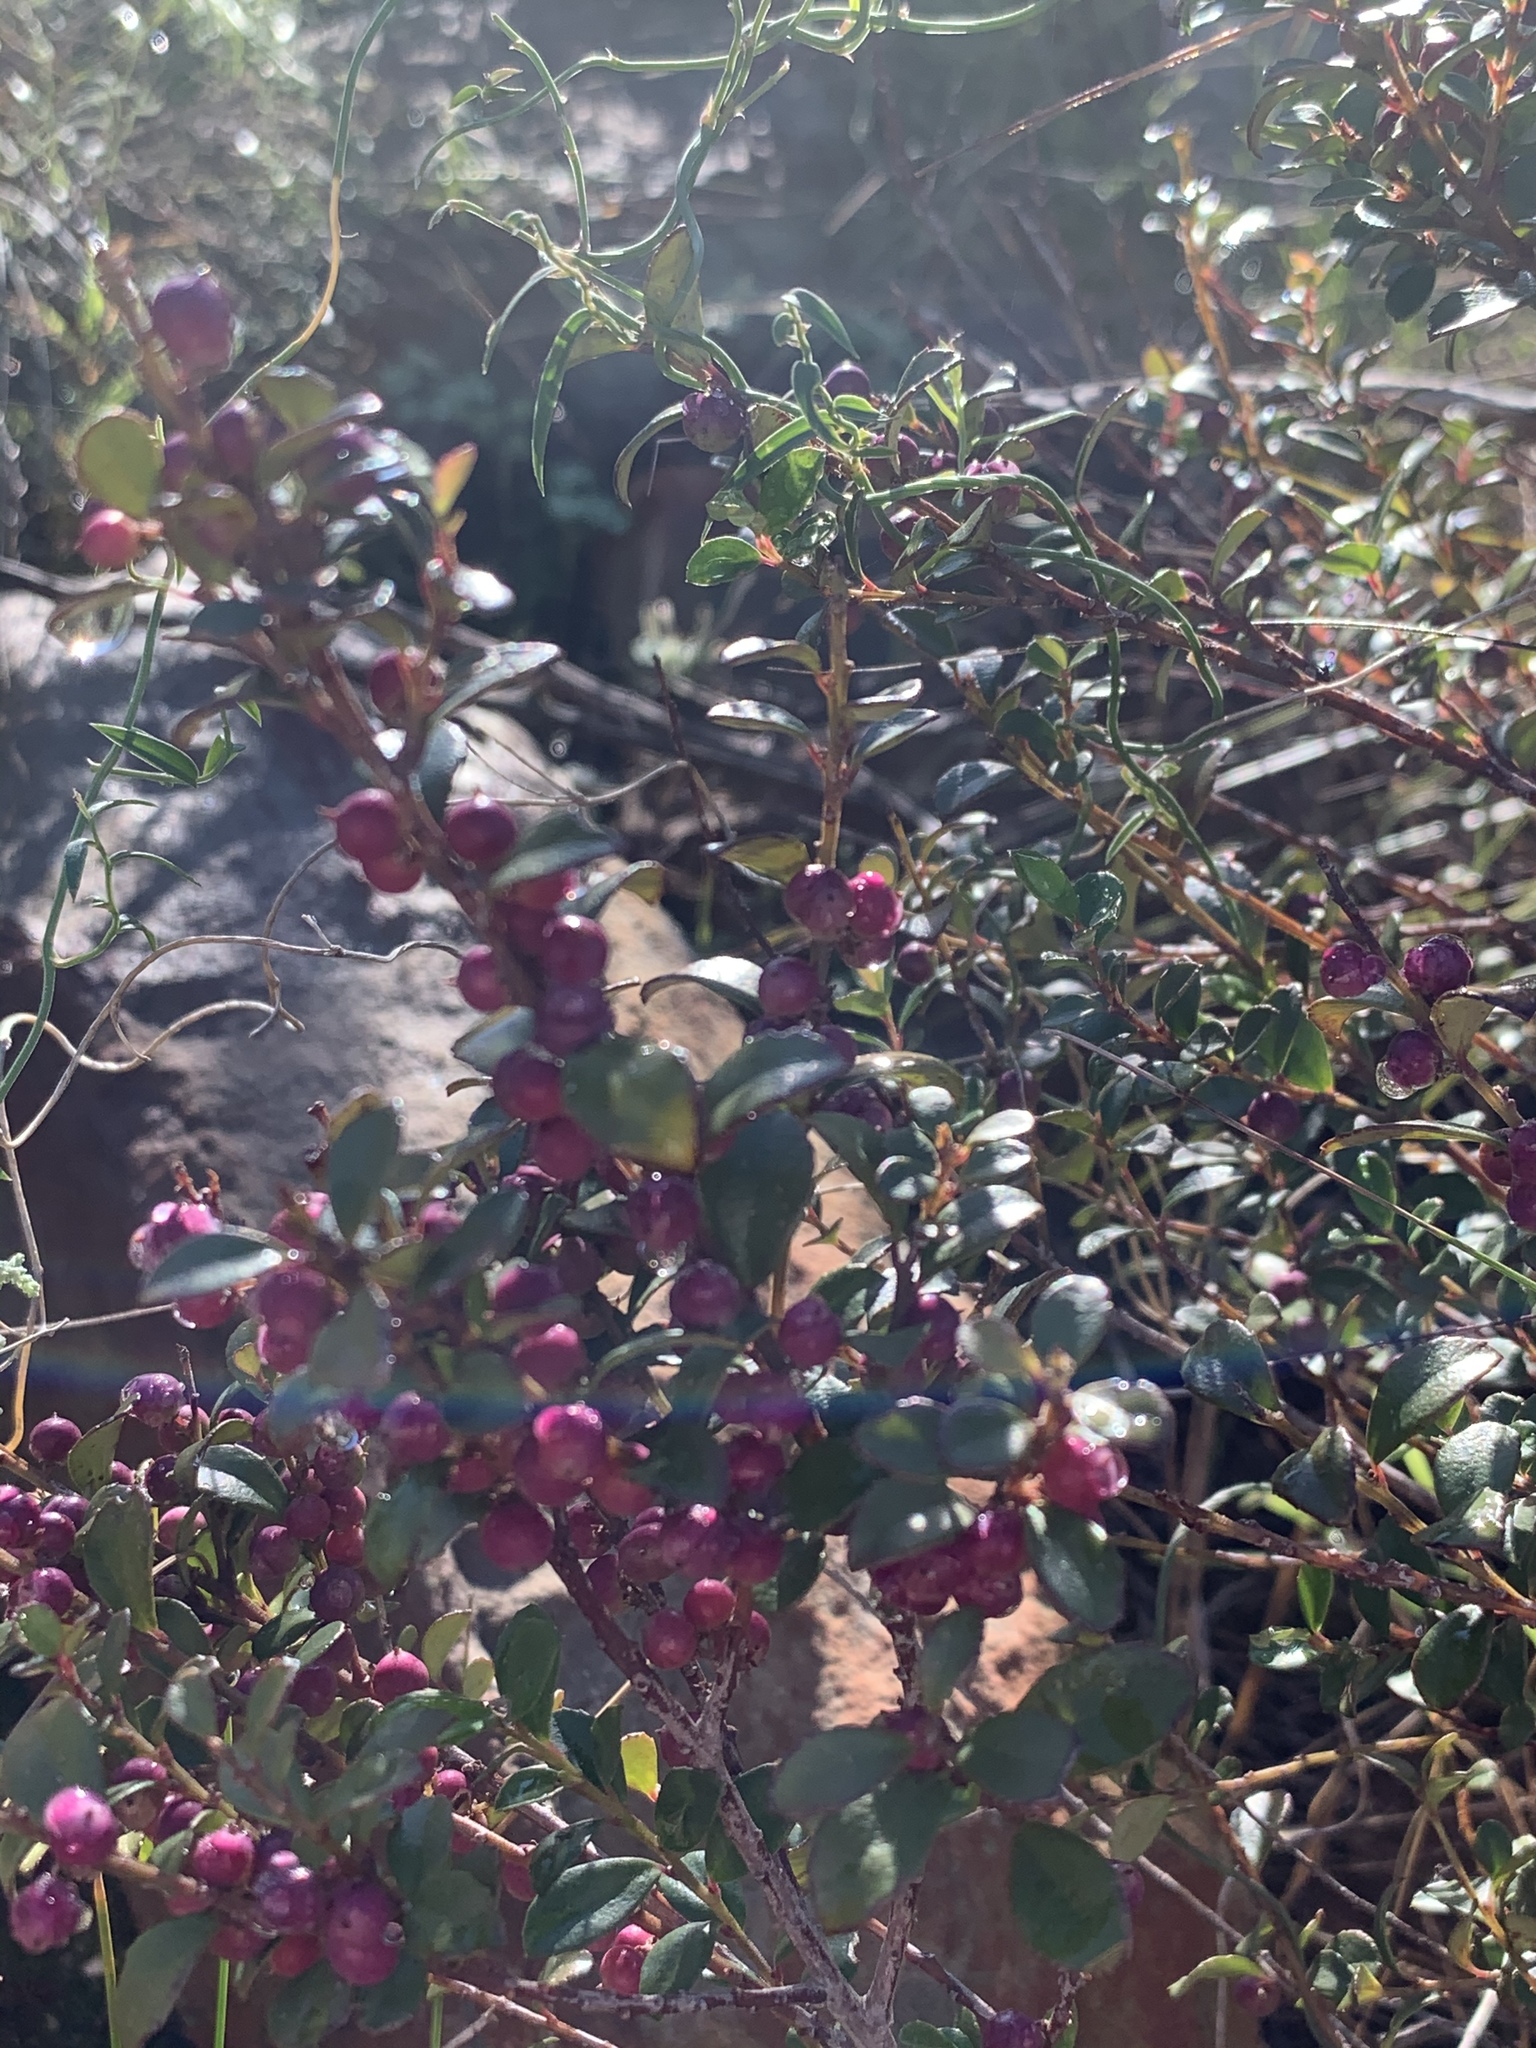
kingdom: Plantae
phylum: Tracheophyta
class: Magnoliopsida
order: Ericales
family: Primulaceae
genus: Myrsine
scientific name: Myrsine africana
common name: African-boxwood
